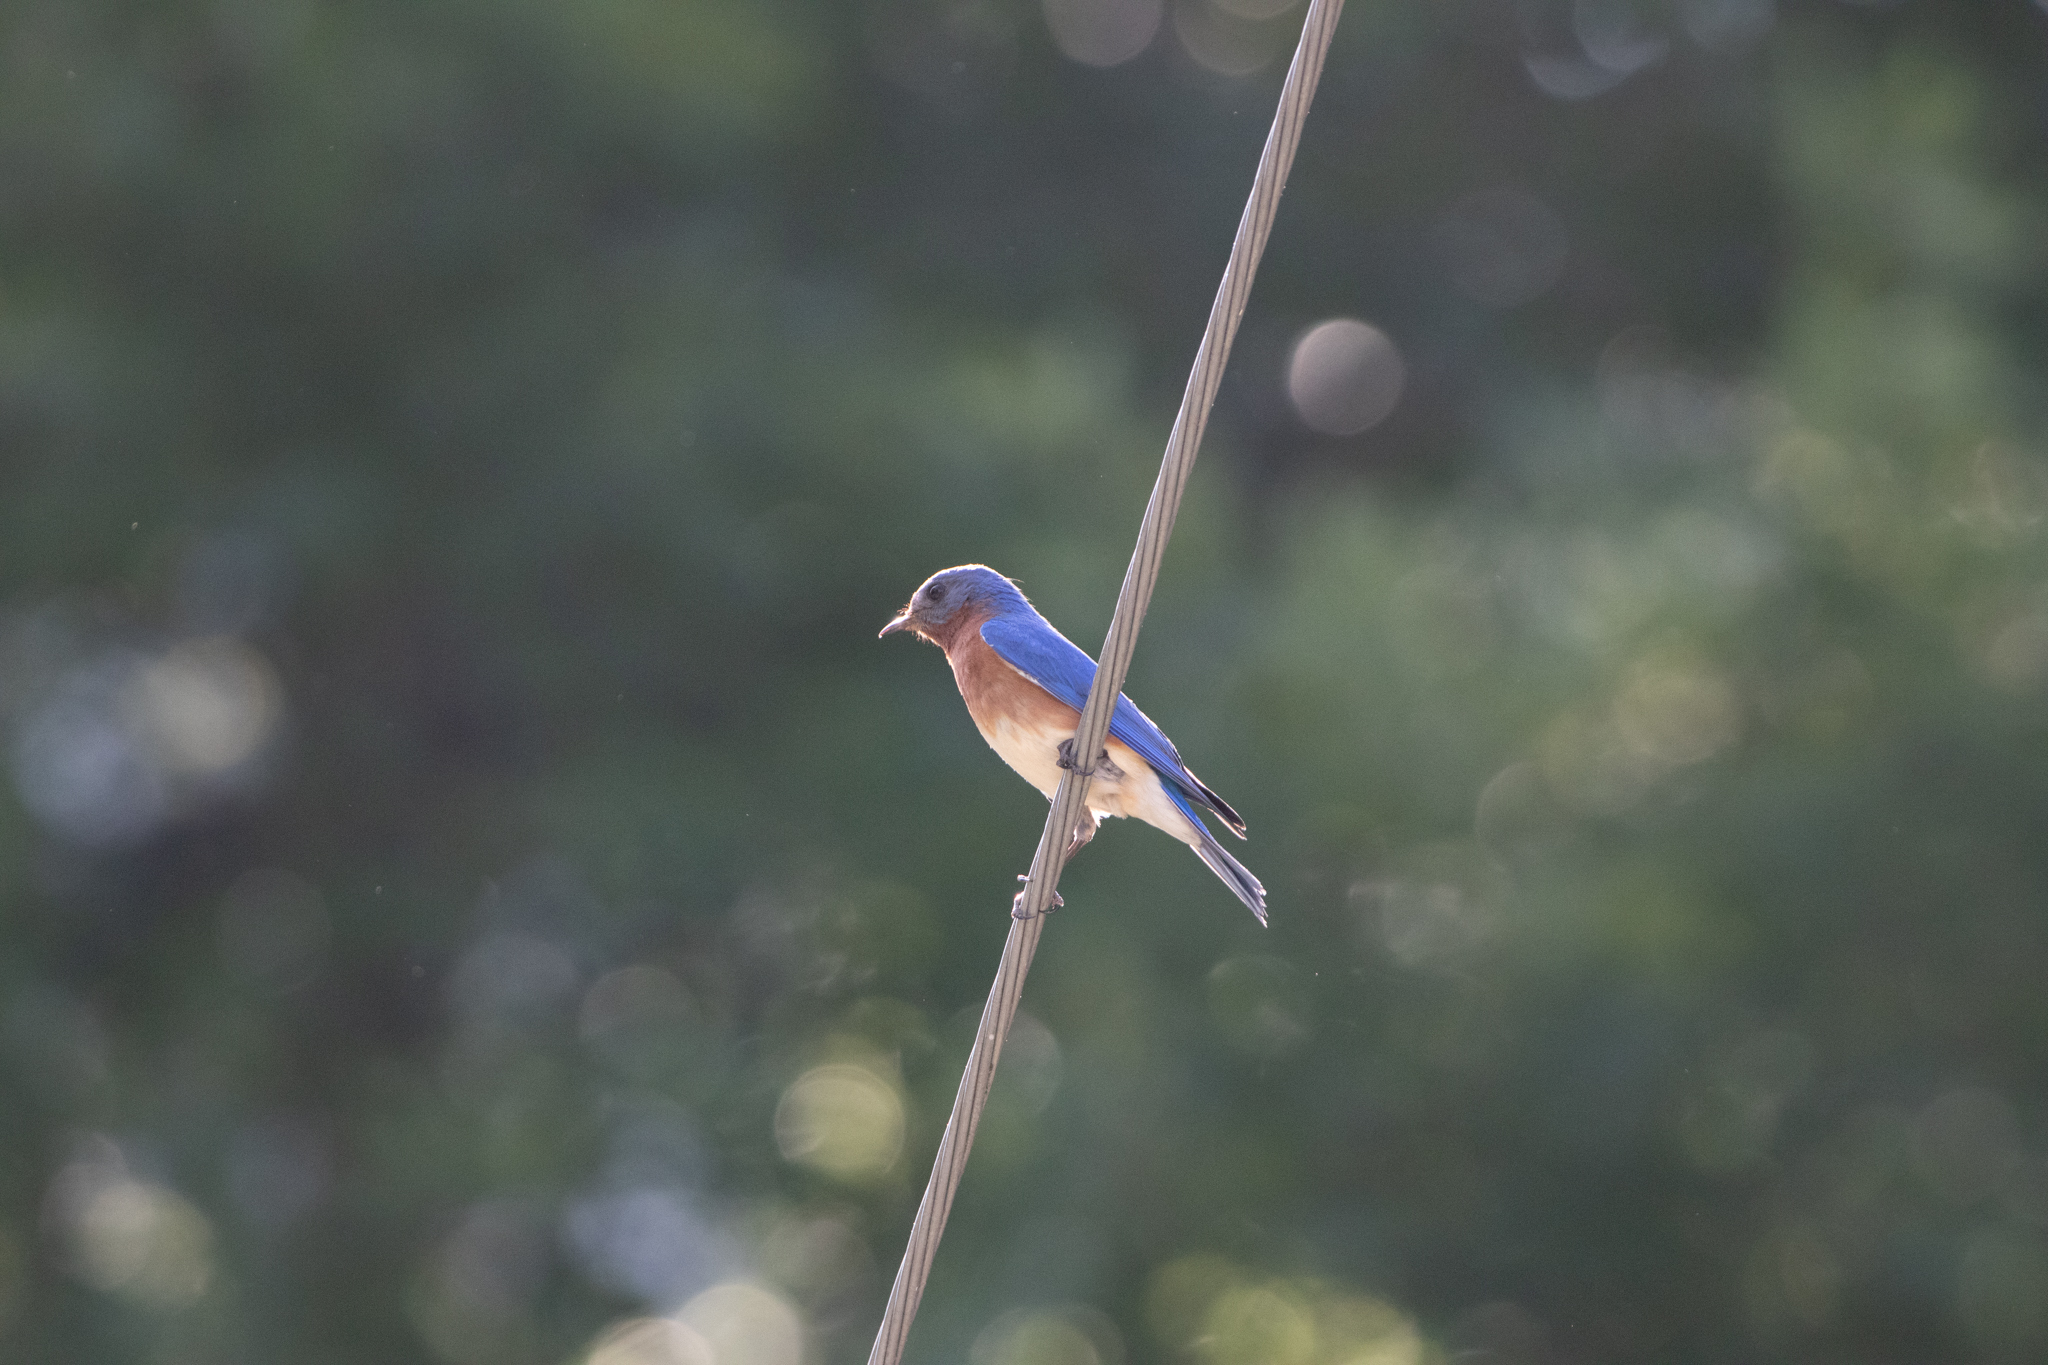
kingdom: Animalia
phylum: Chordata
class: Aves
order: Passeriformes
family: Turdidae
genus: Sialia
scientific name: Sialia sialis
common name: Eastern bluebird
